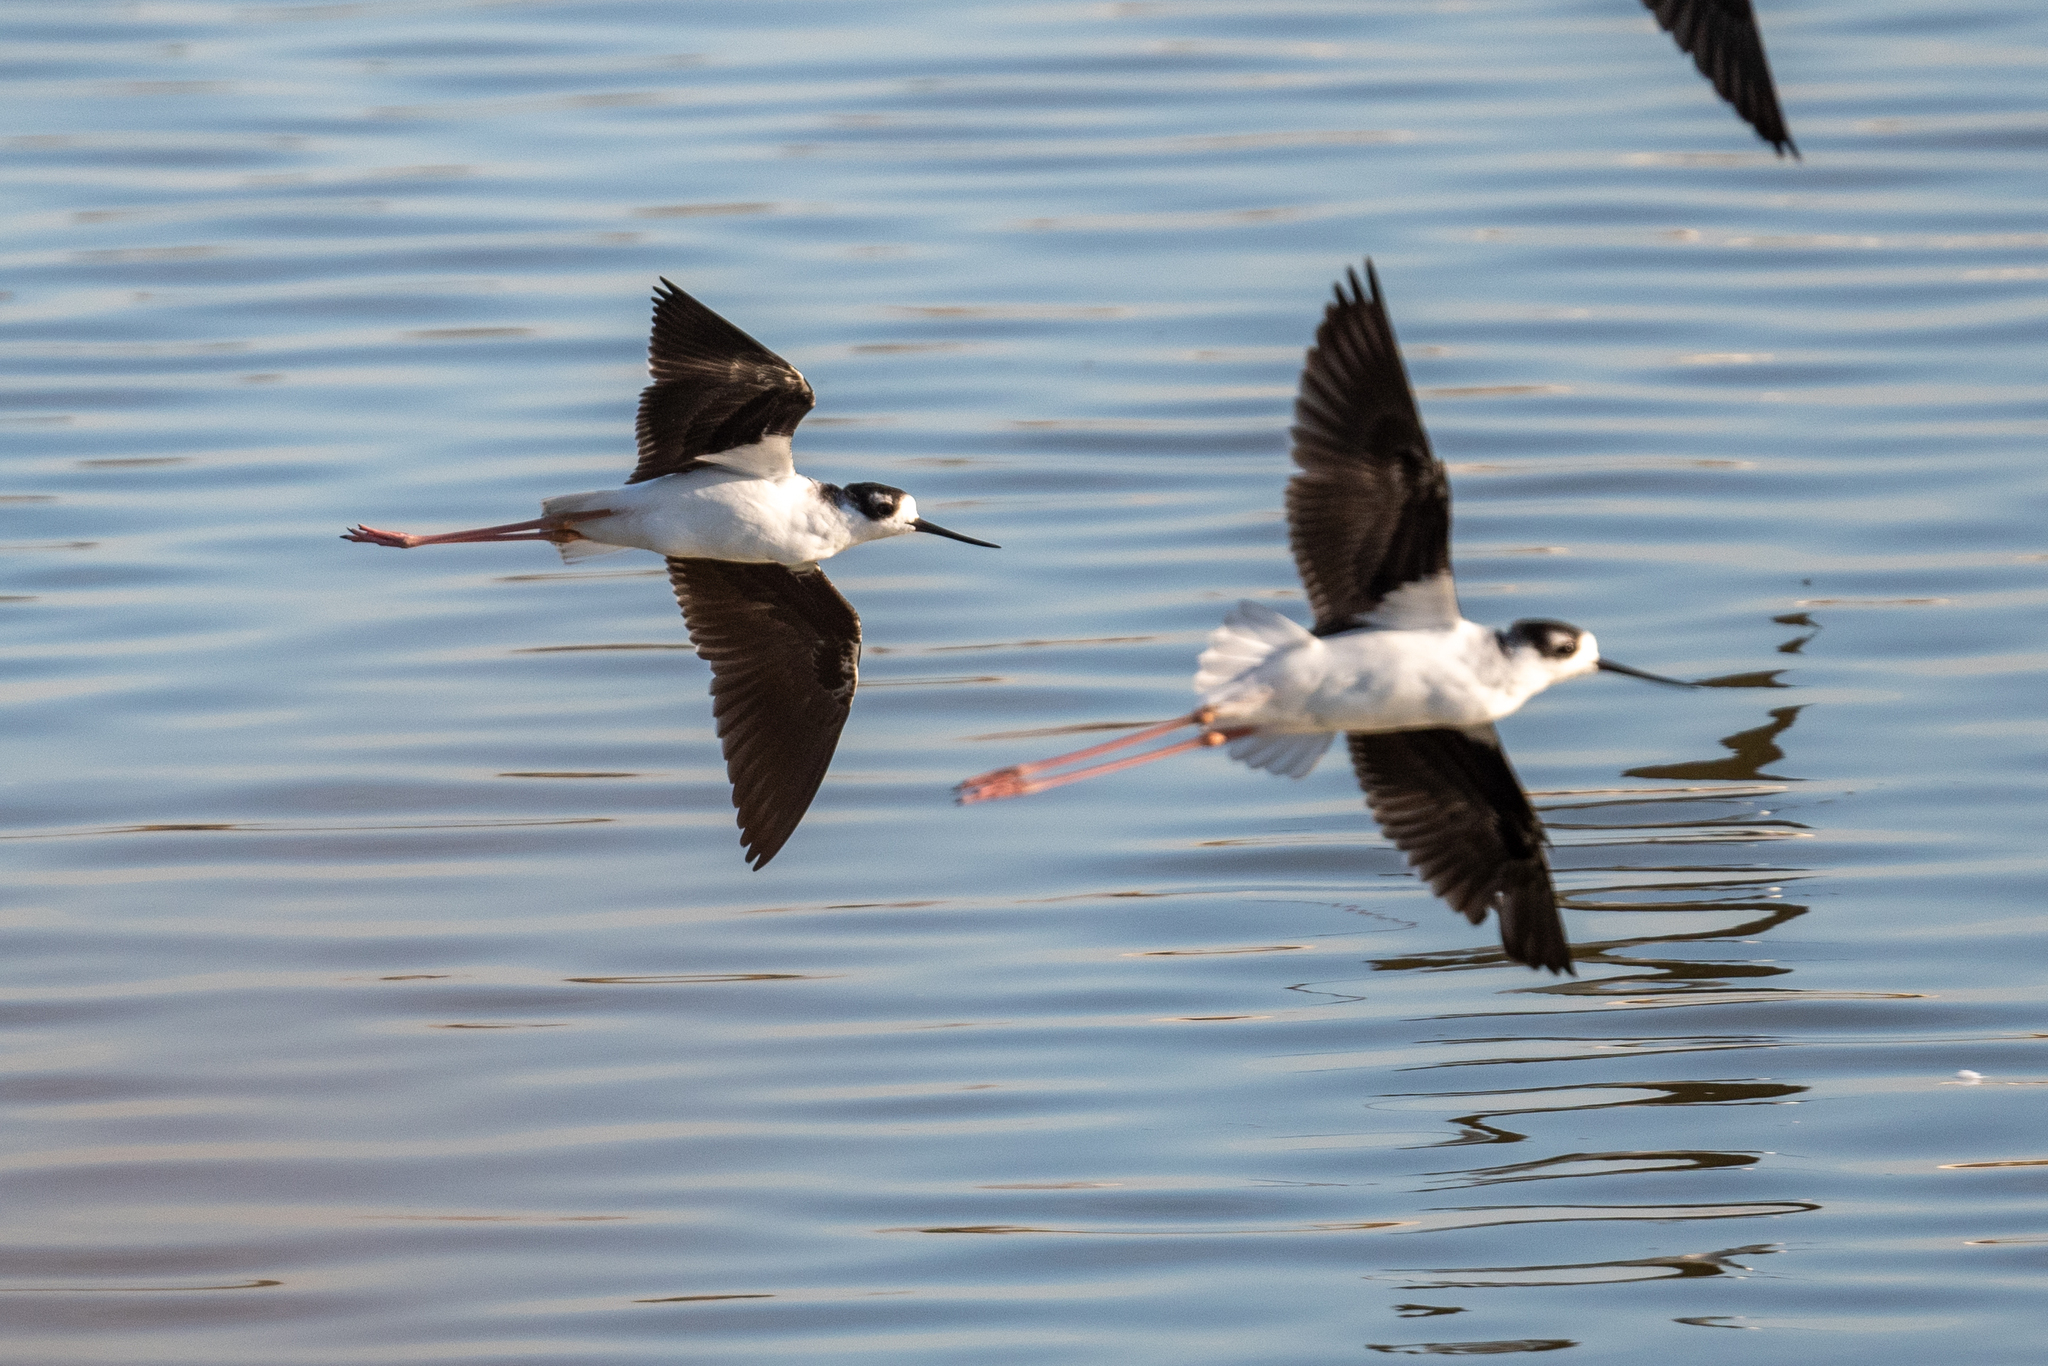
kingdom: Animalia
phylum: Chordata
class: Aves
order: Charadriiformes
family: Recurvirostridae
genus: Himantopus
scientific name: Himantopus mexicanus
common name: Black-necked stilt
